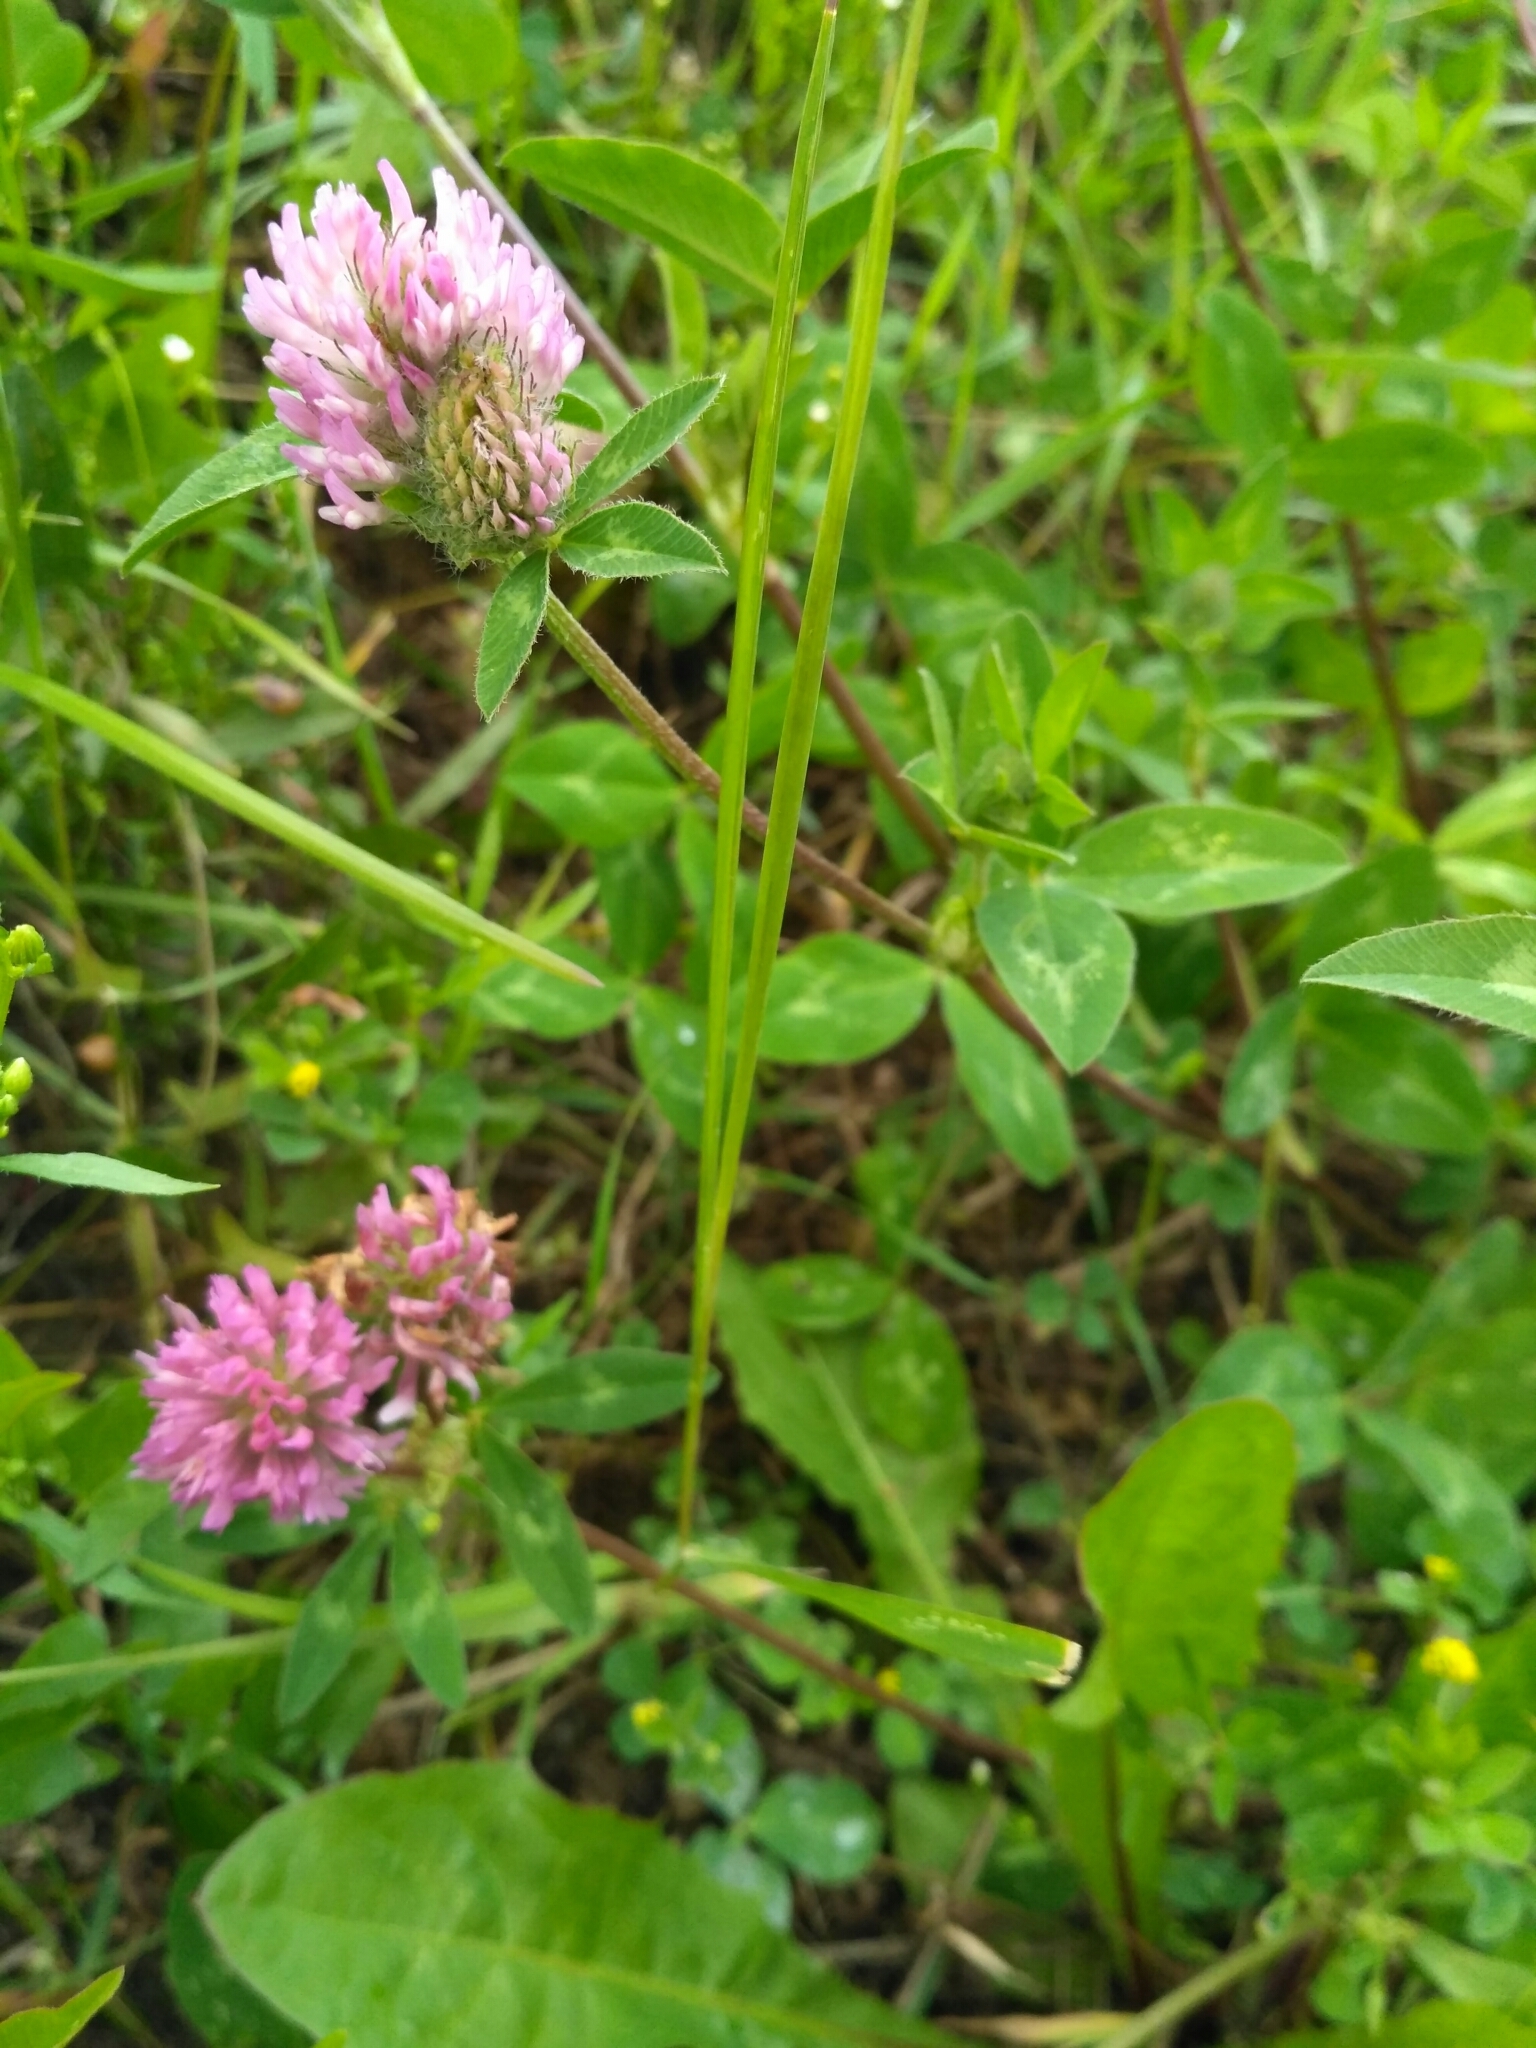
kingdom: Plantae
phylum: Tracheophyta
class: Magnoliopsida
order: Fabales
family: Fabaceae
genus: Trifolium
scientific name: Trifolium pratense
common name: Red clover
